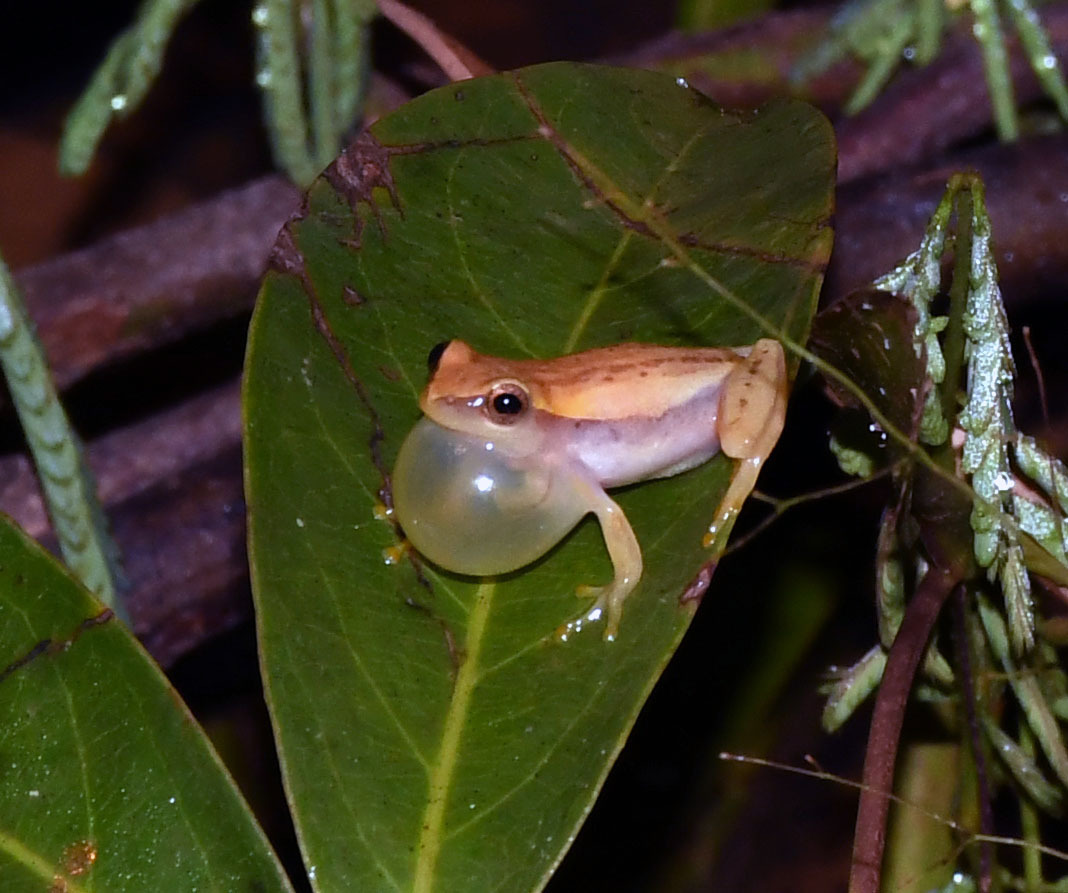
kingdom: Animalia
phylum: Chordata
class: Amphibia
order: Anura
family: Hylidae
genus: Dendropsophus
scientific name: Dendropsophus walfordi
